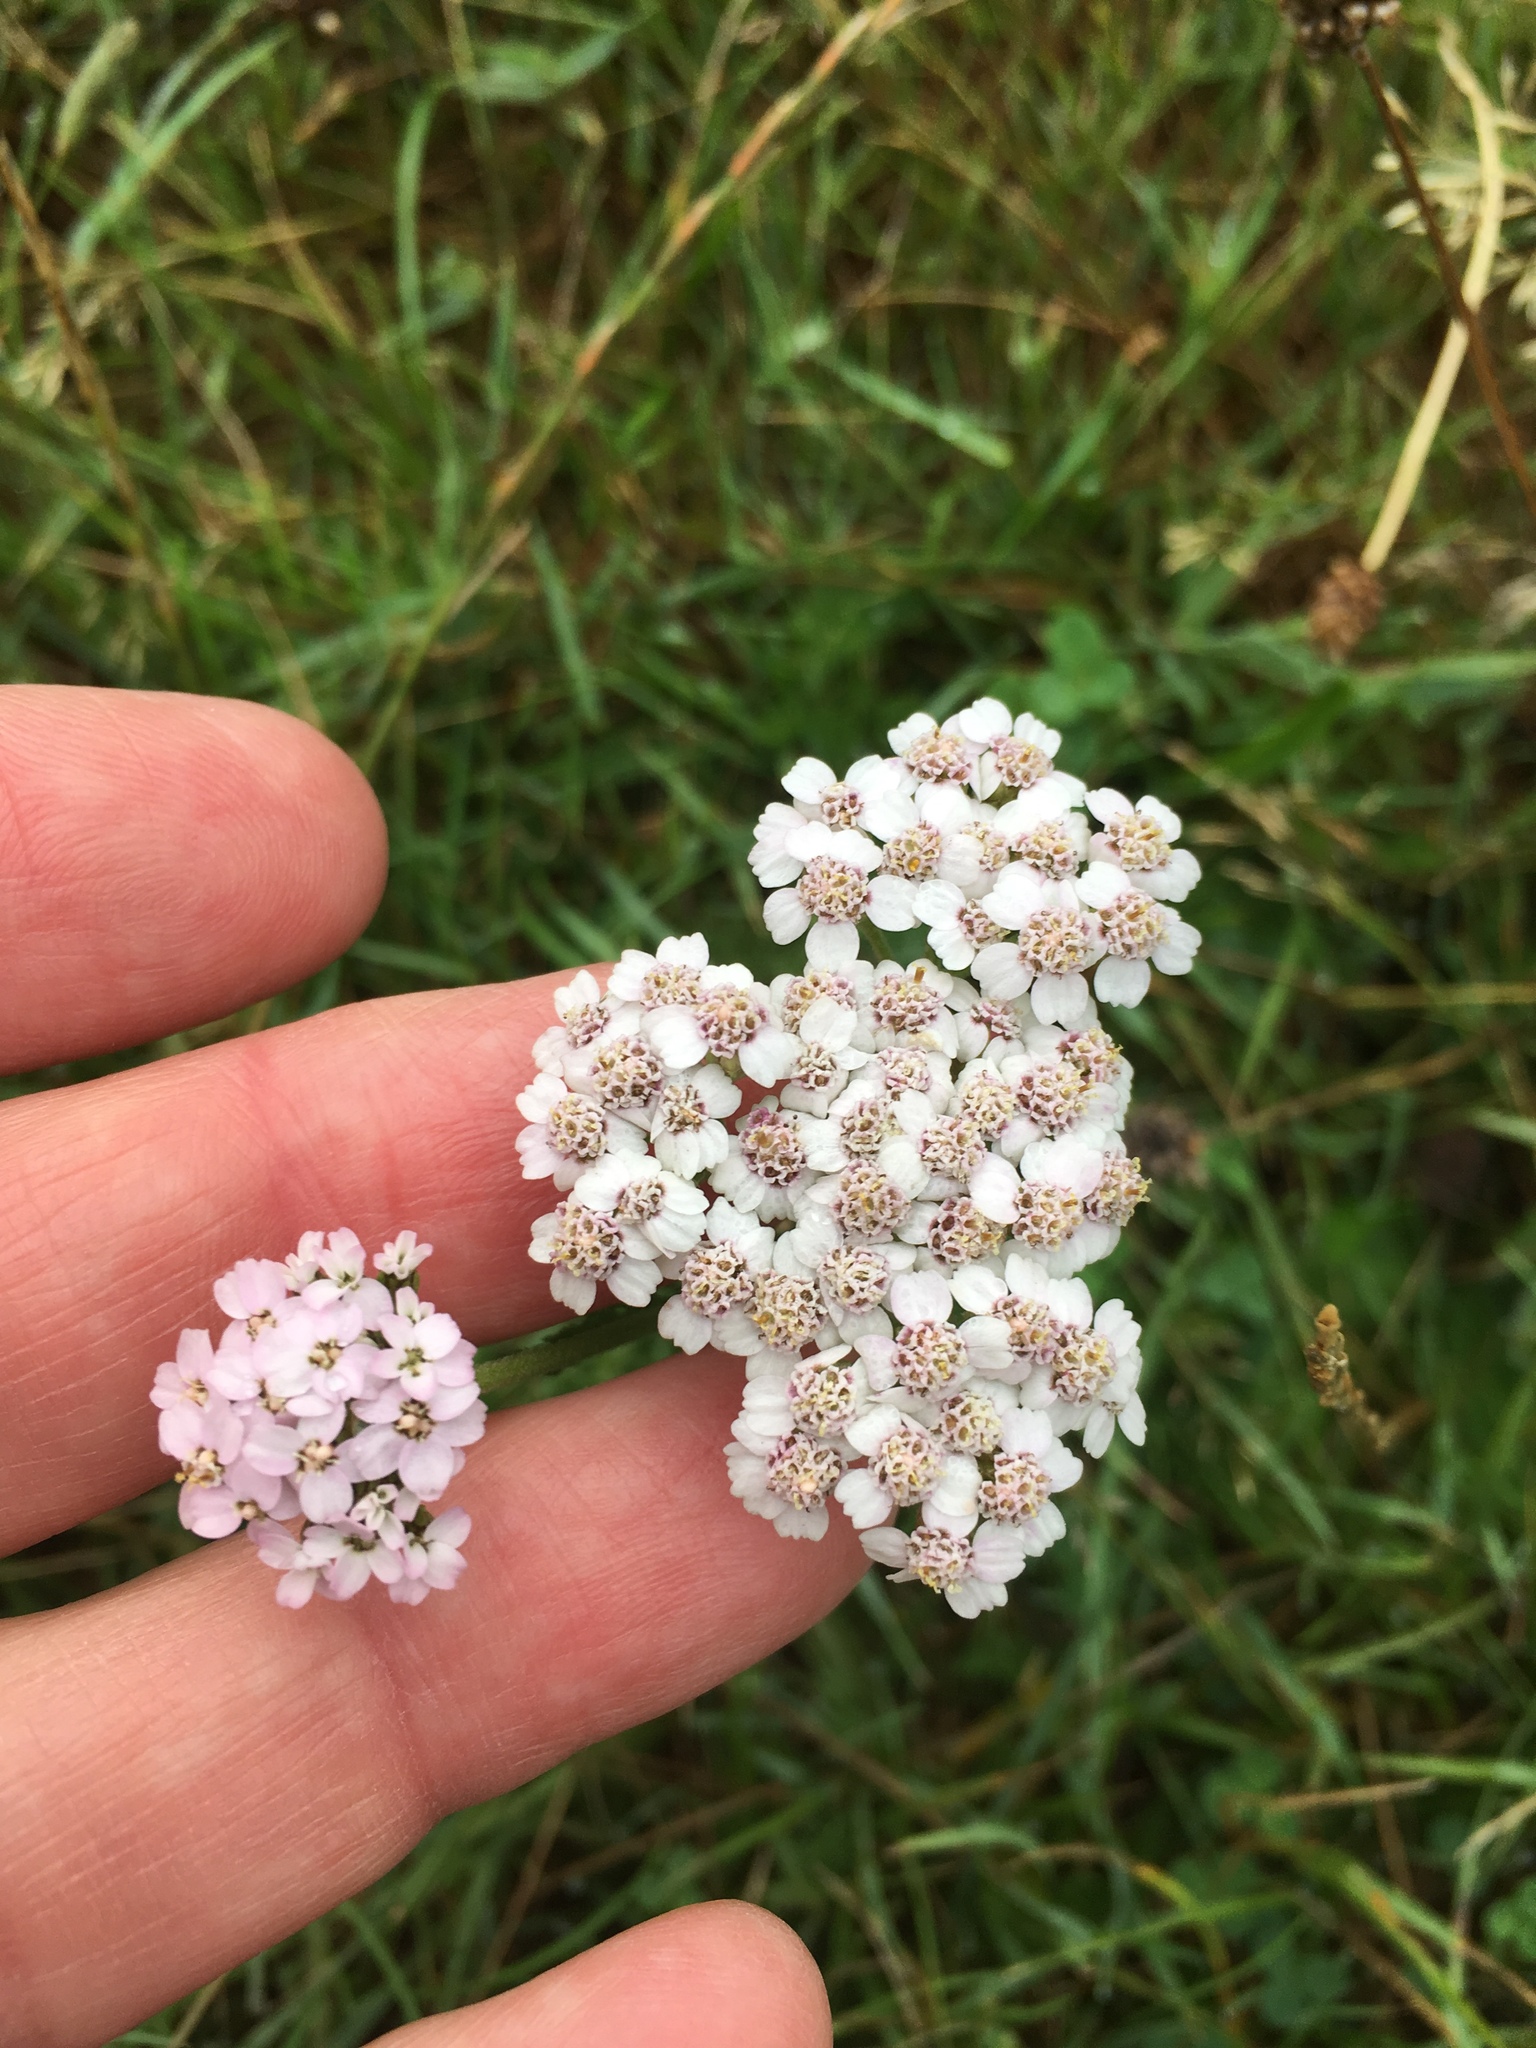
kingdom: Plantae
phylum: Tracheophyta
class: Magnoliopsida
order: Asterales
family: Asteraceae
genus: Achillea
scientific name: Achillea millefolium
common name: Yarrow
